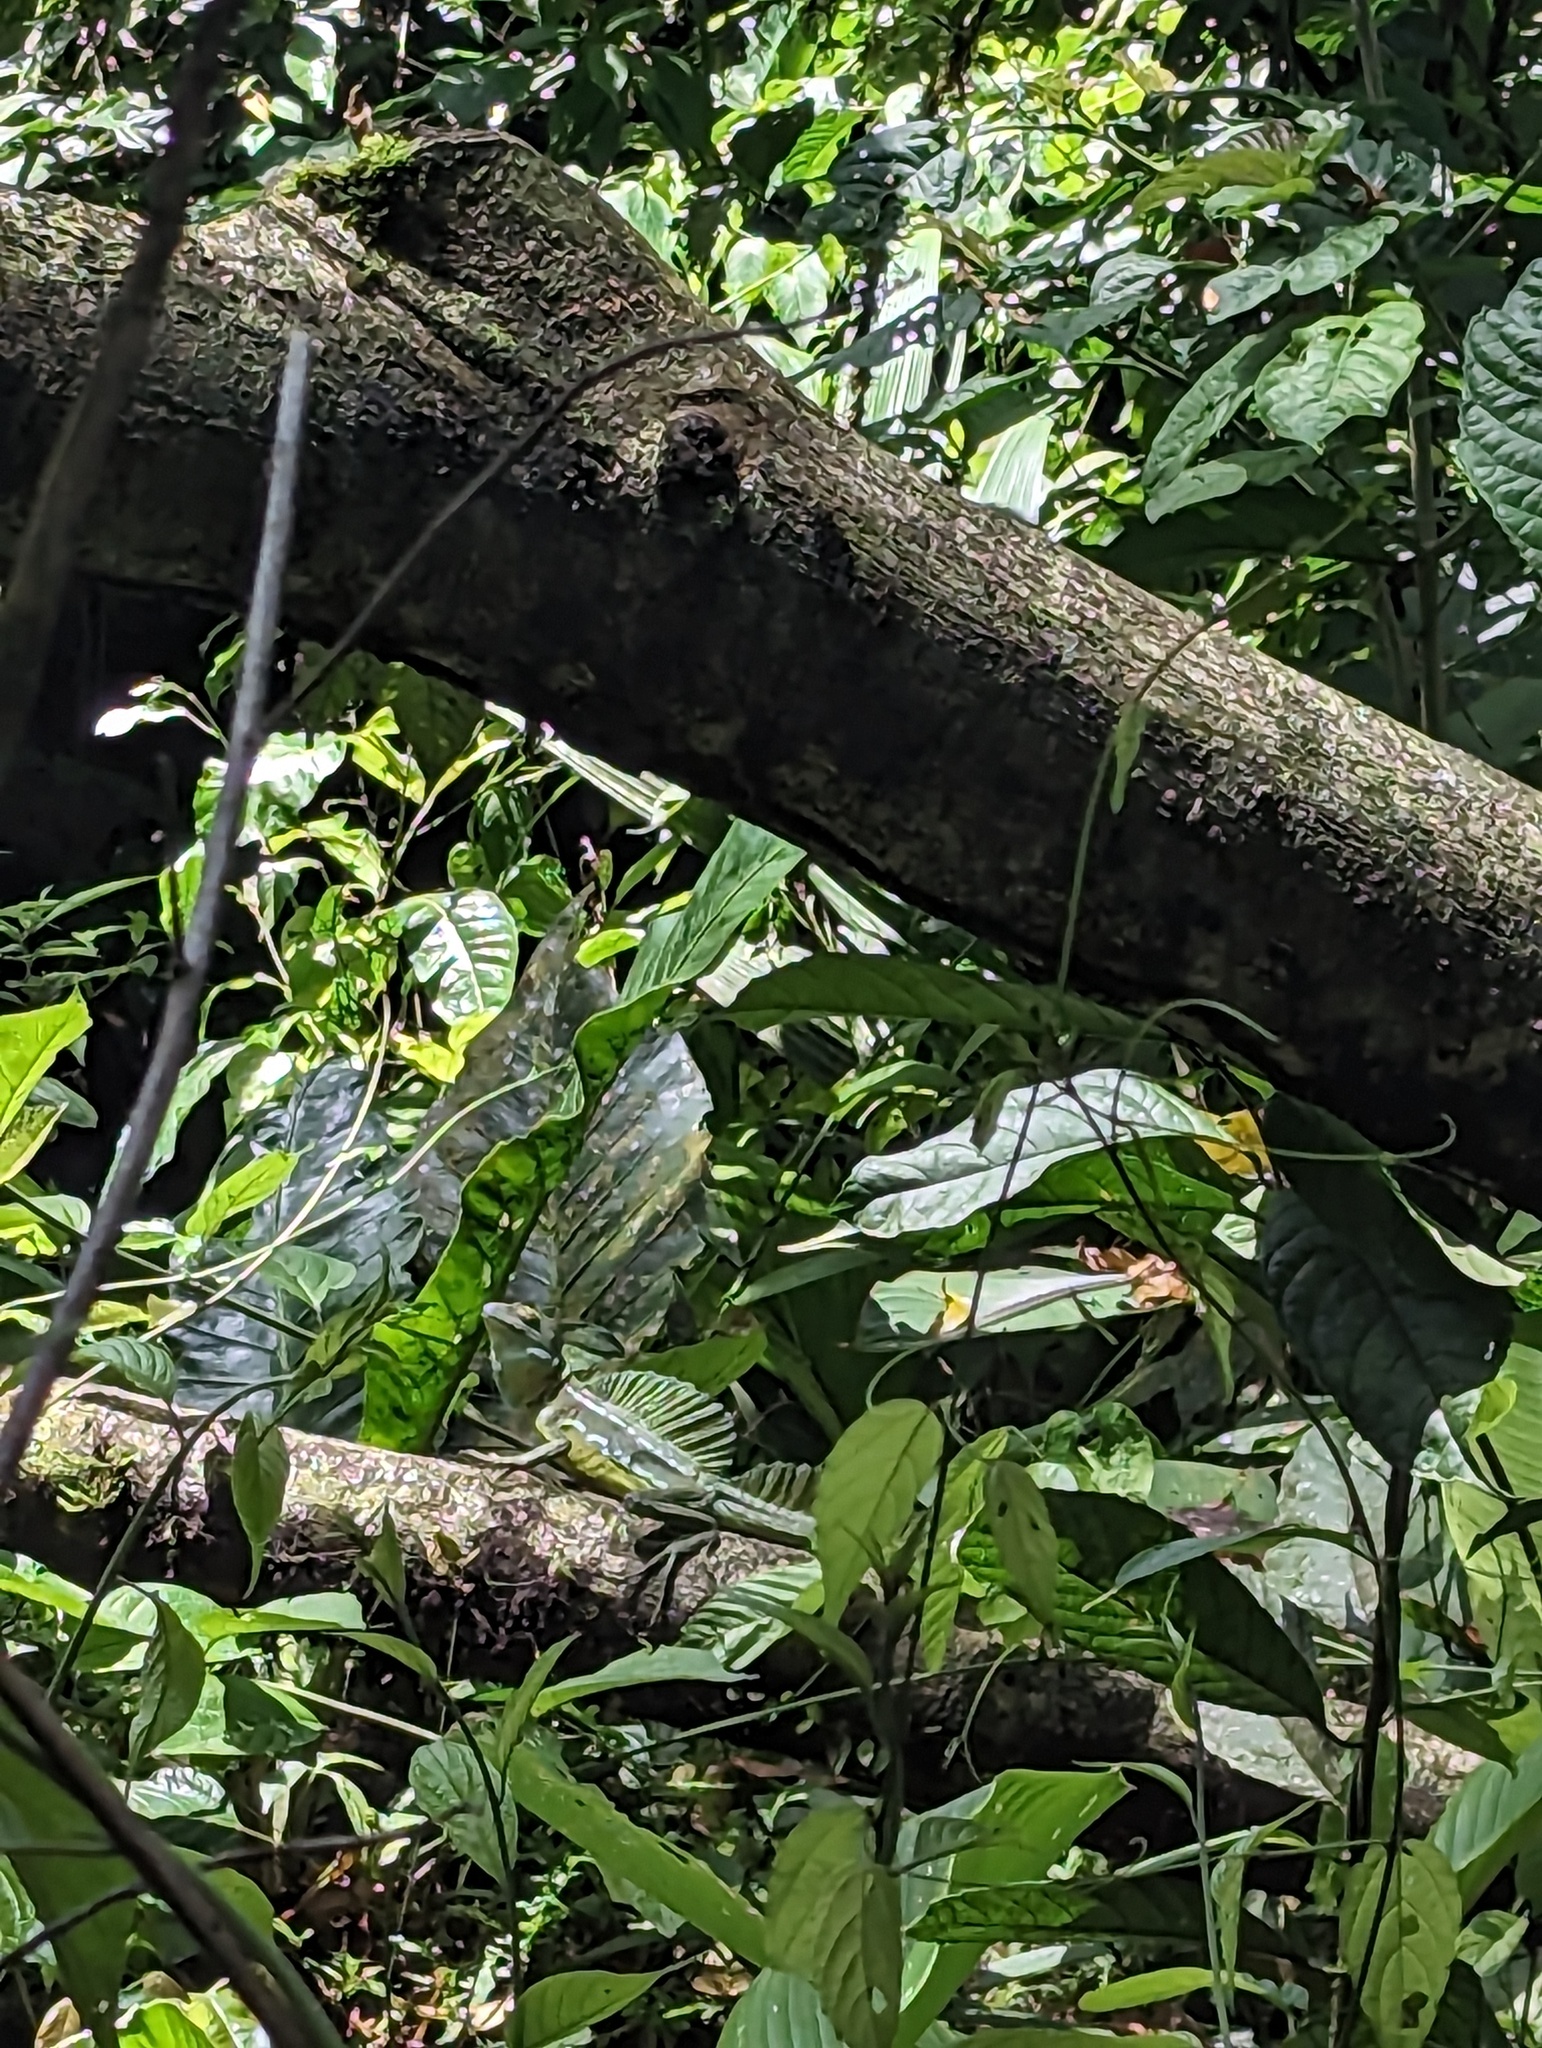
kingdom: Animalia
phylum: Chordata
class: Squamata
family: Corytophanidae
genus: Basiliscus
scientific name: Basiliscus plumifrons
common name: Green basilisk
